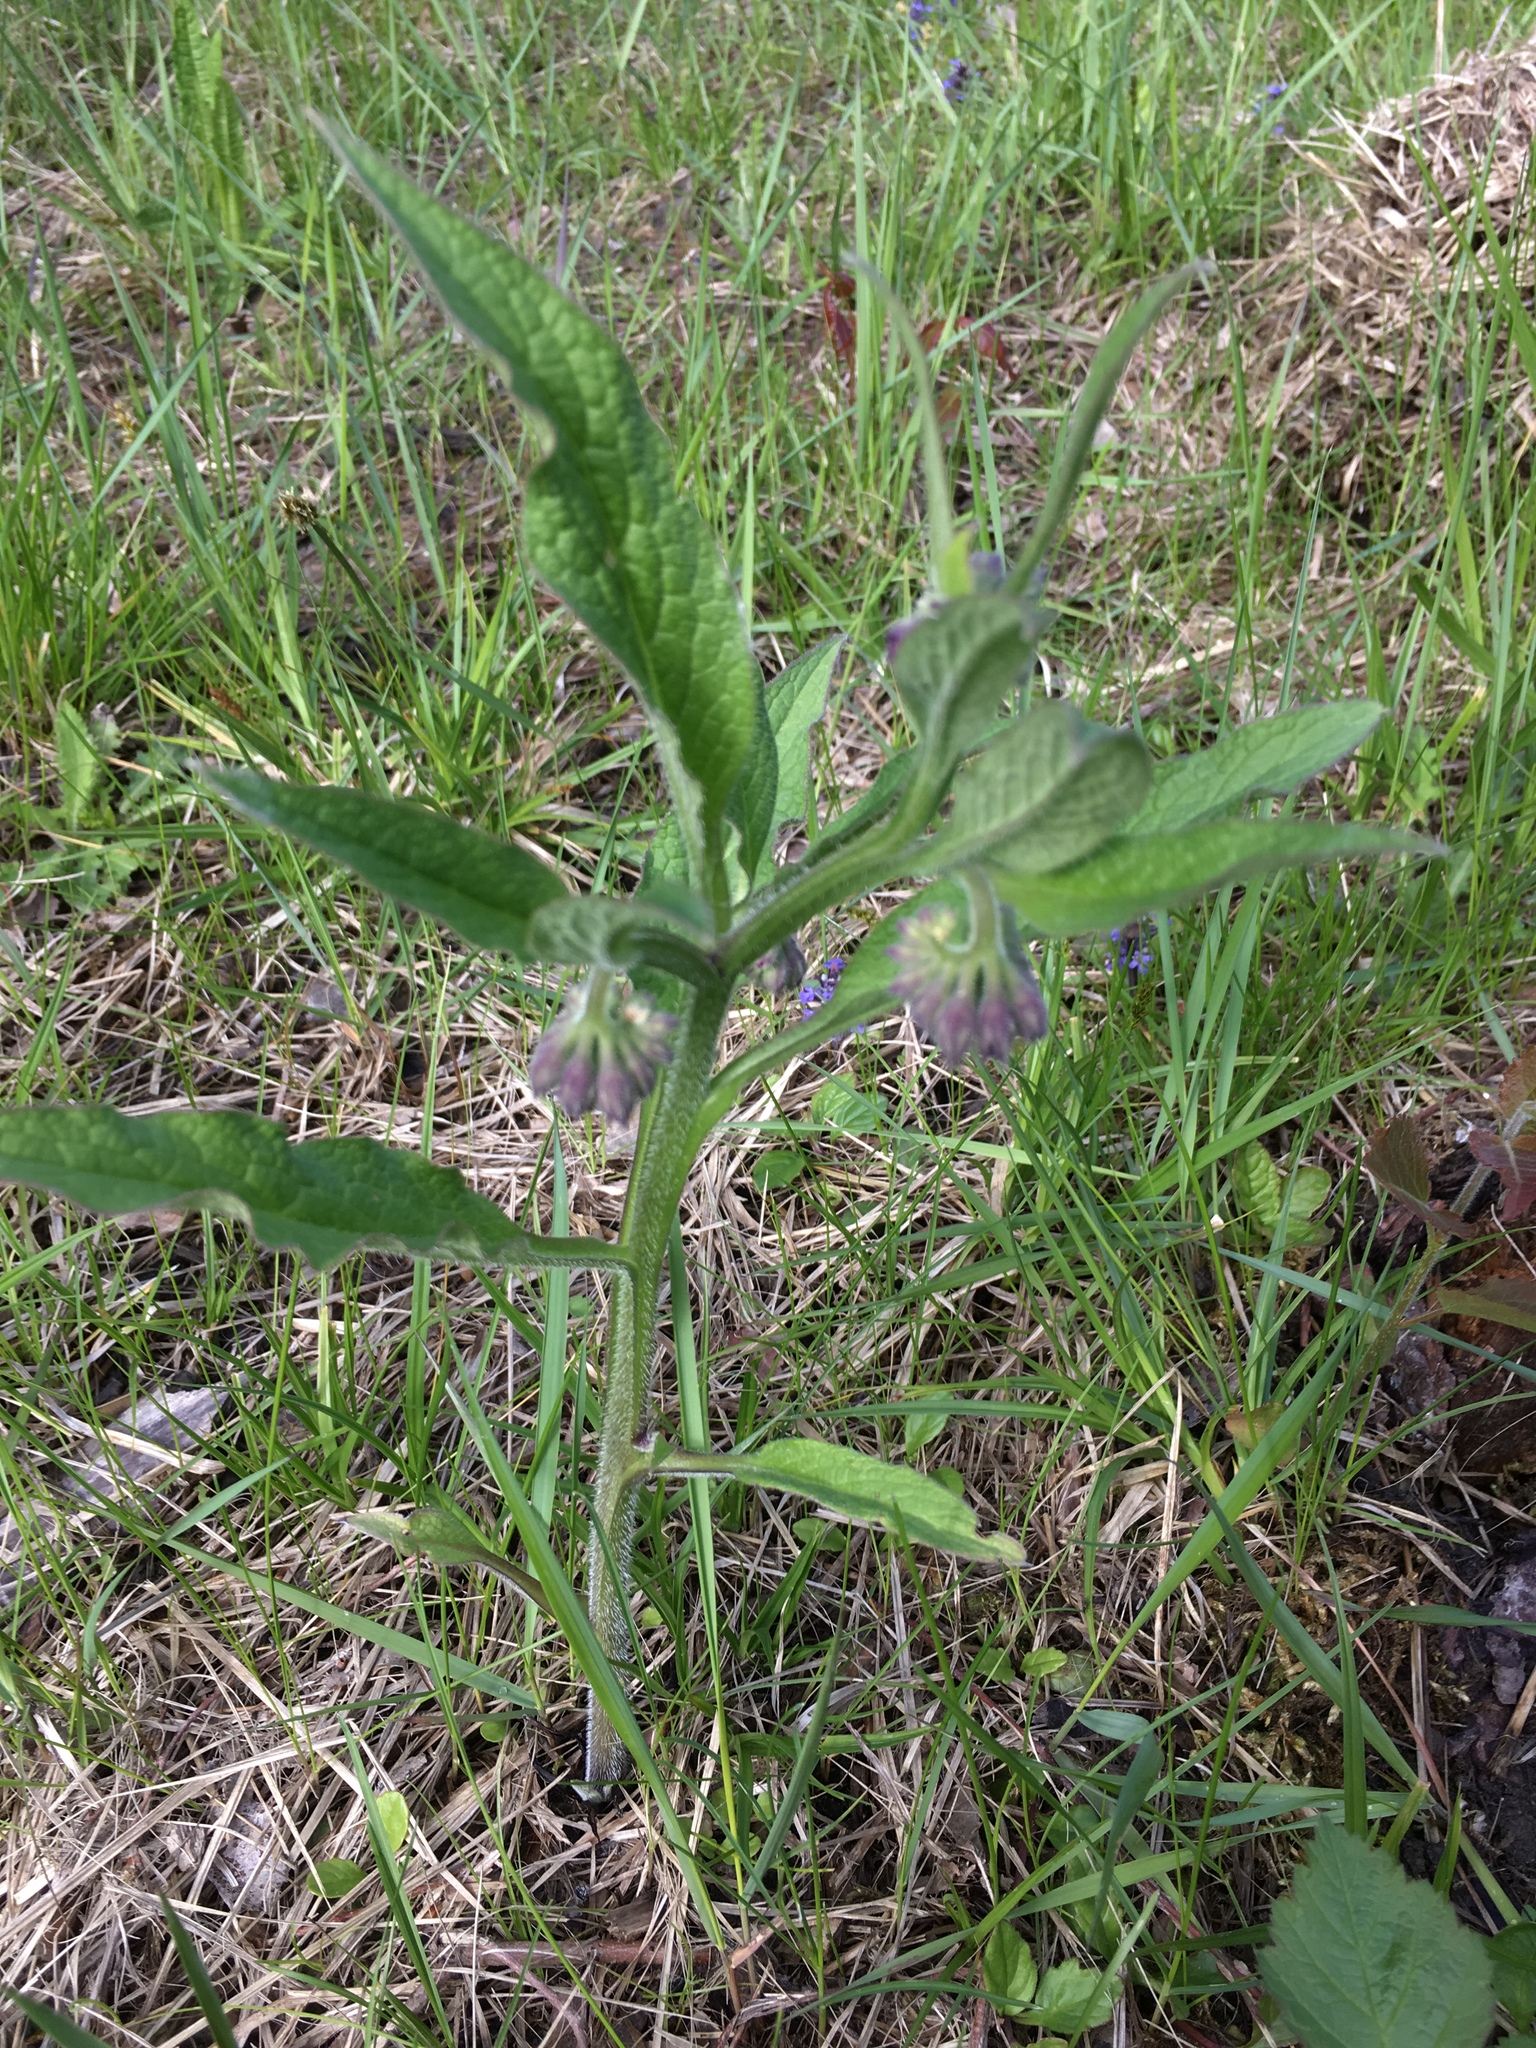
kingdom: Plantae
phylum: Tracheophyta
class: Magnoliopsida
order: Boraginales
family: Boraginaceae
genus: Symphytum
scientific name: Symphytum officinale
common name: Common comfrey
